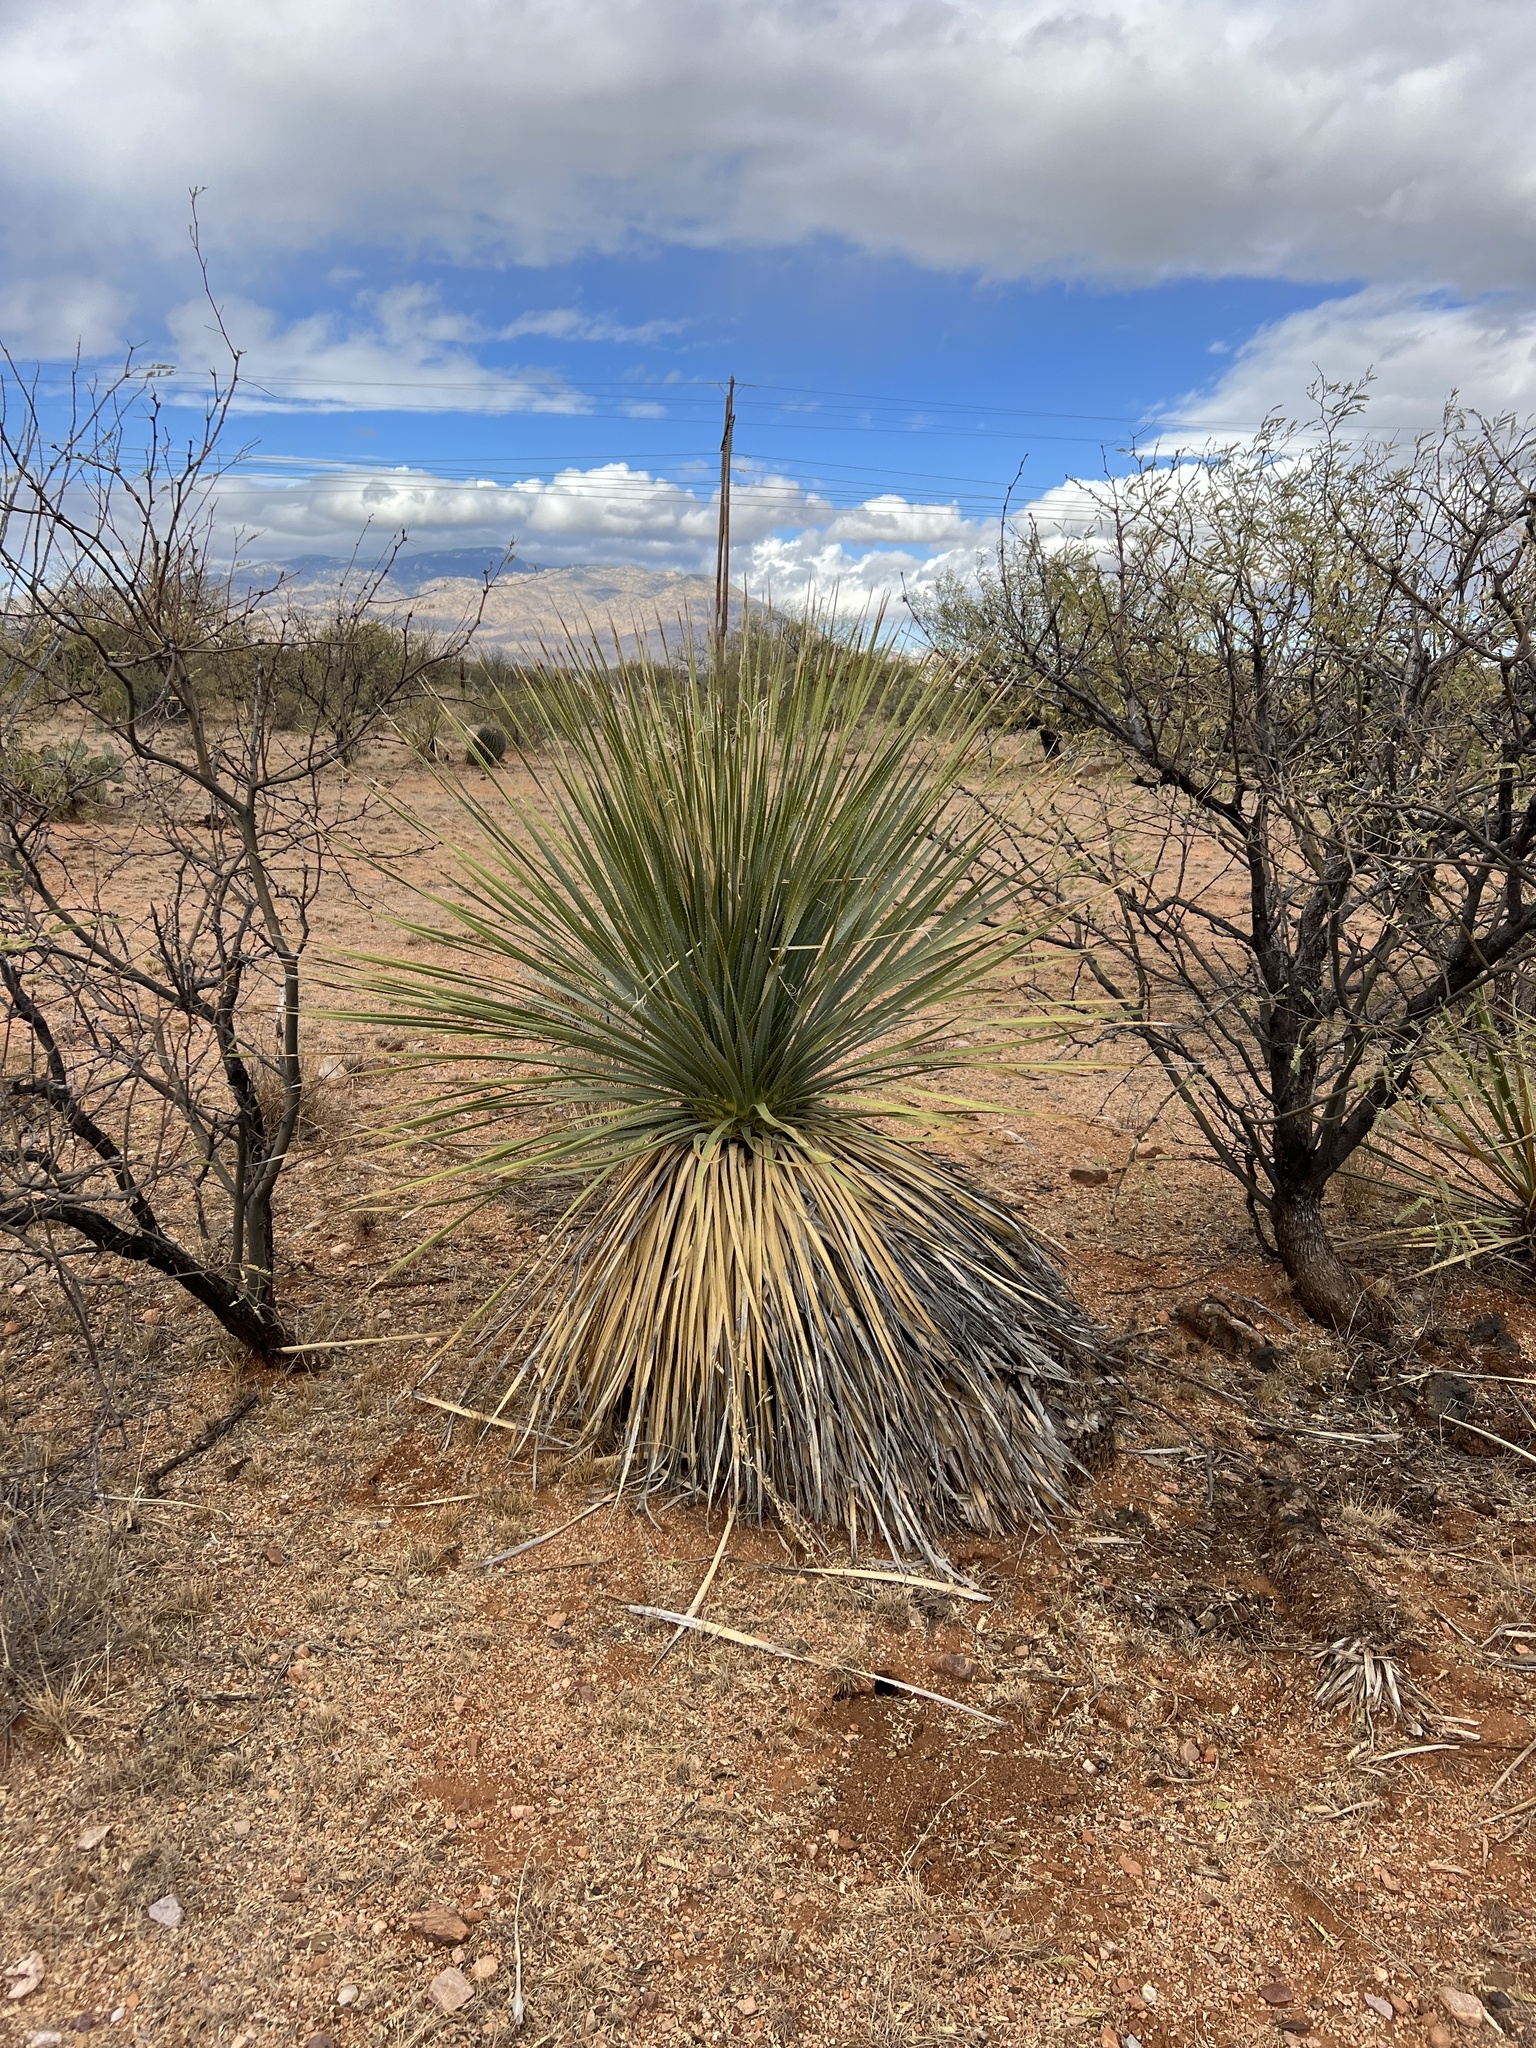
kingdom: Plantae
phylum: Tracheophyta
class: Liliopsida
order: Asparagales
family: Asparagaceae
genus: Dasylirion
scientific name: Dasylirion wheeleri
